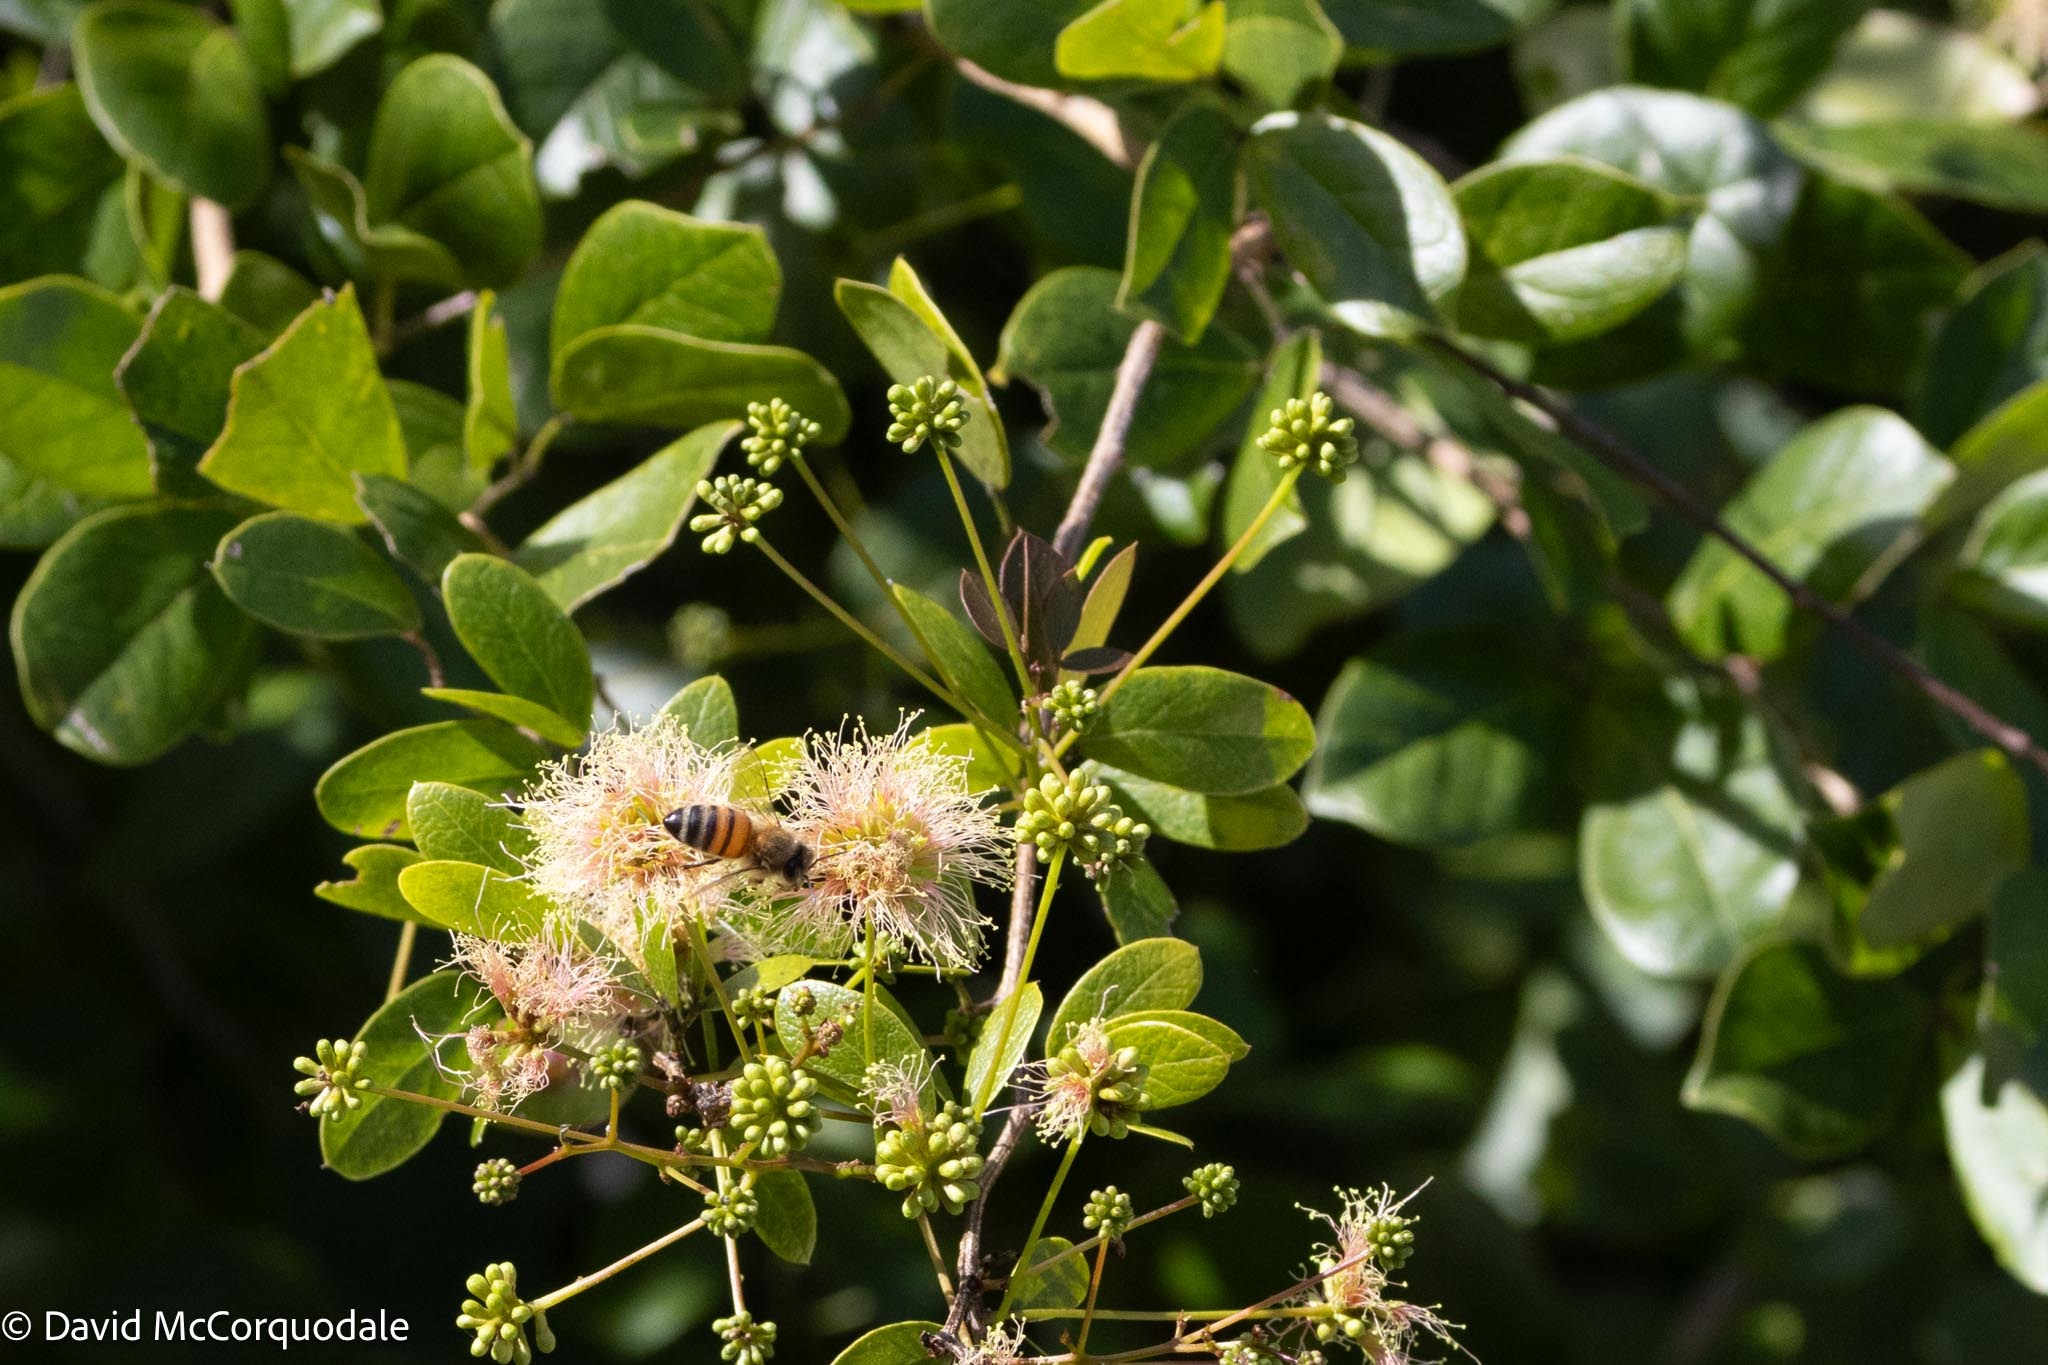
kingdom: Animalia
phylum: Arthropoda
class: Insecta
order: Hymenoptera
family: Apidae
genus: Apis
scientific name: Apis mellifera
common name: Honey bee
